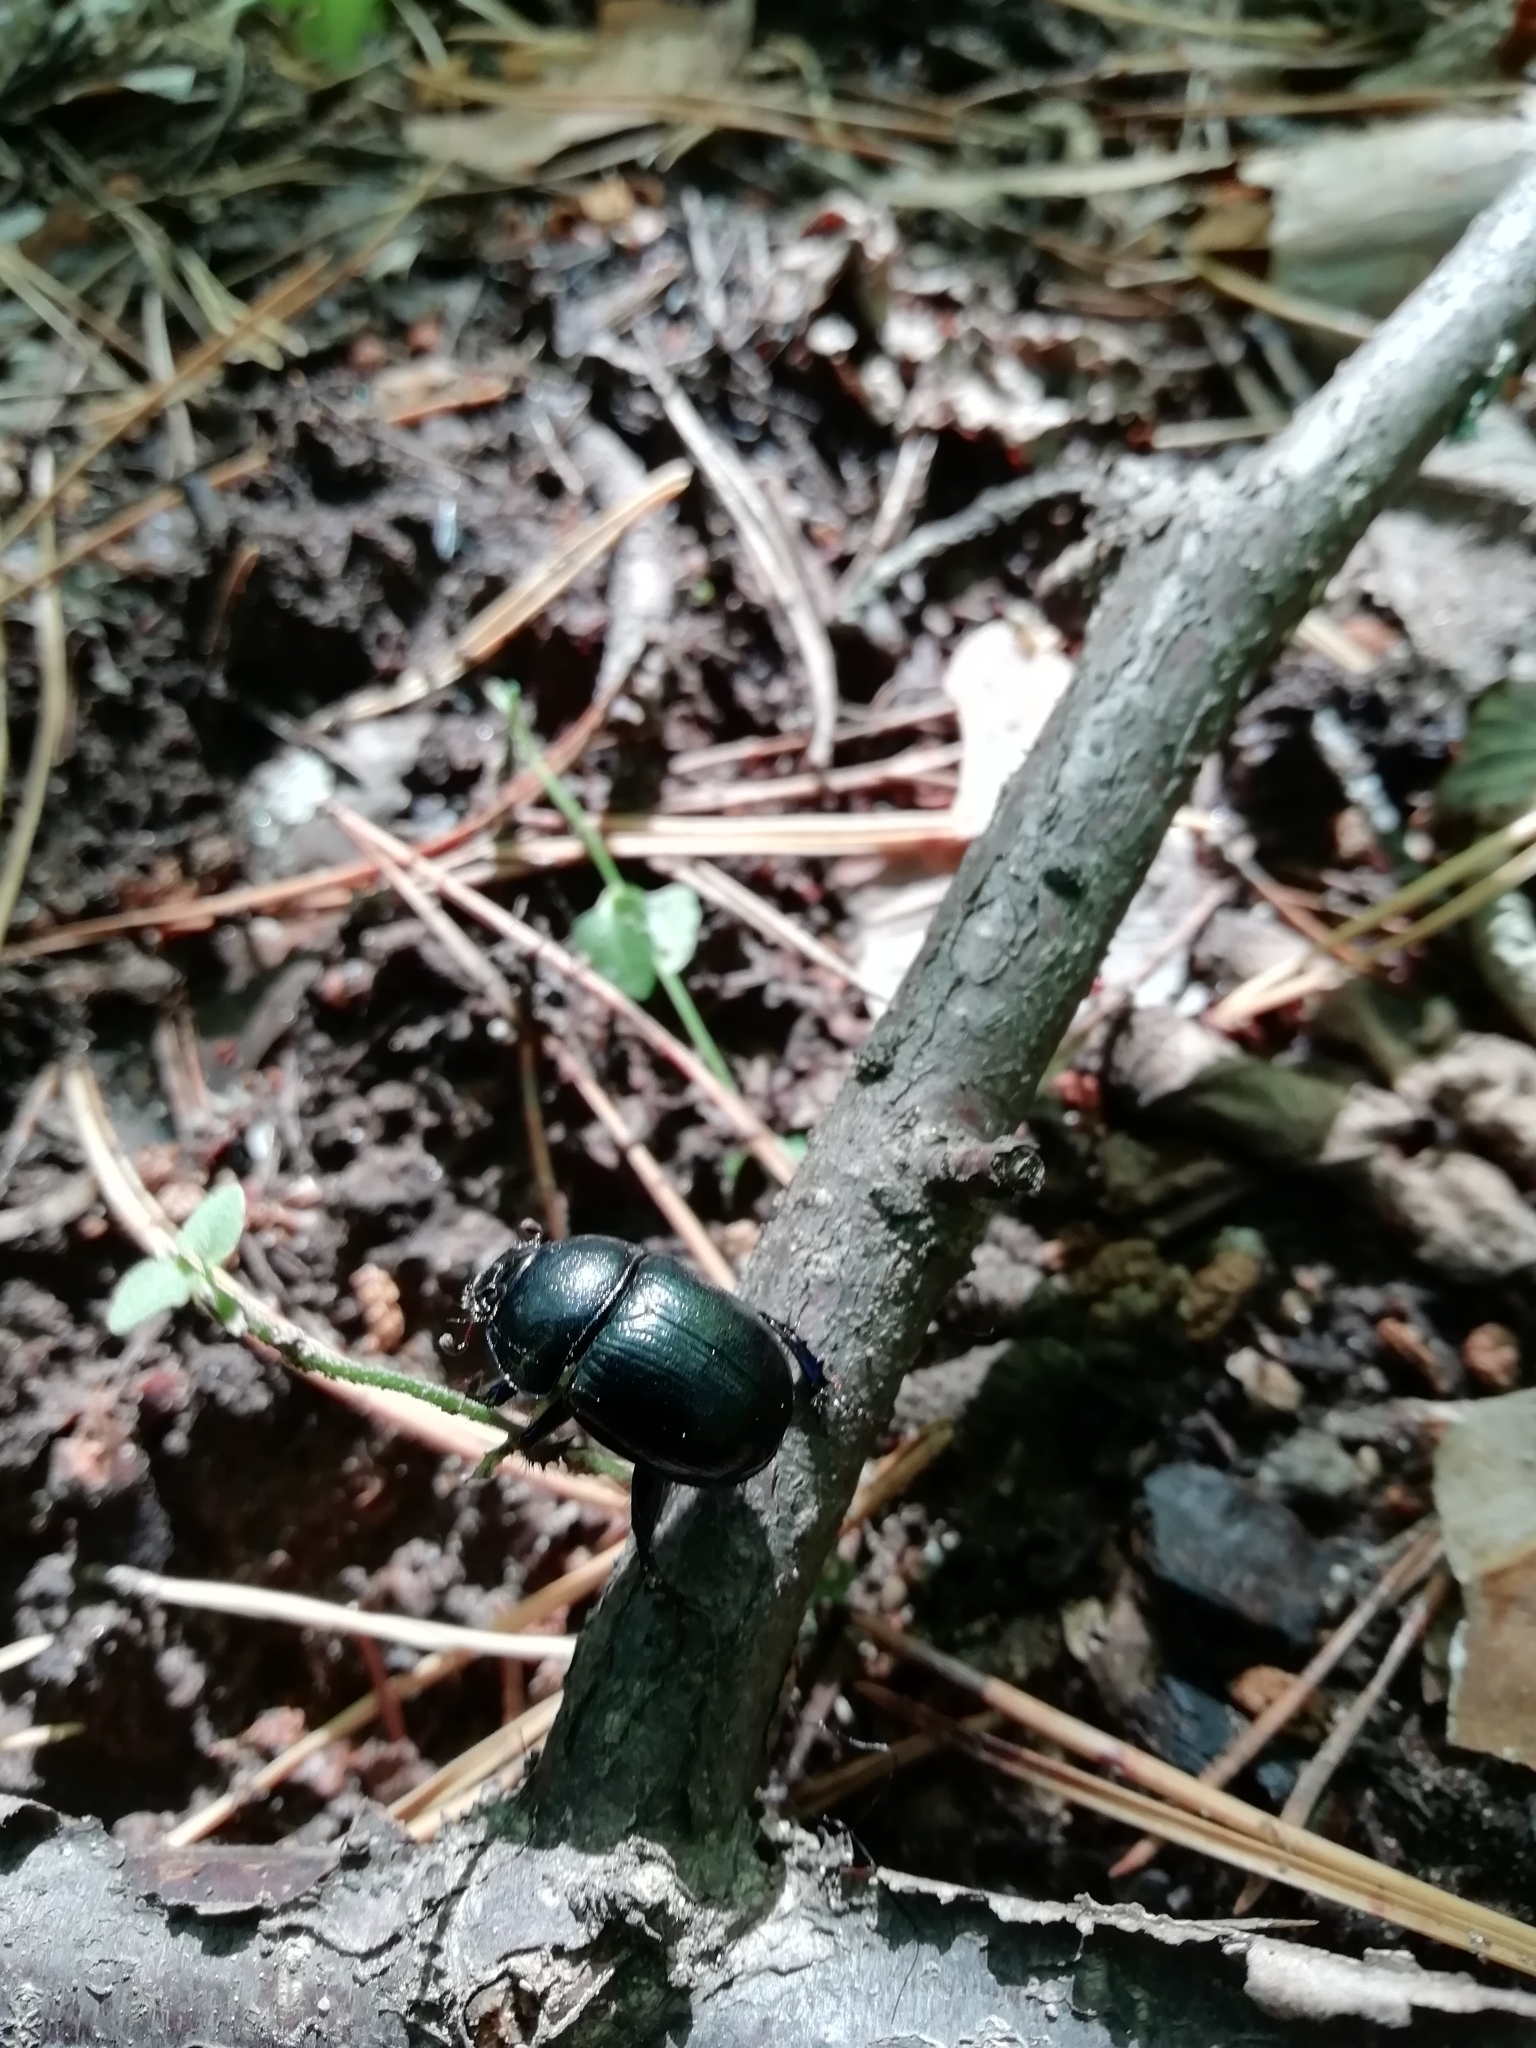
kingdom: Animalia
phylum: Arthropoda
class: Insecta
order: Coleoptera
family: Geotrupidae
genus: Anoplotrupes
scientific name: Anoplotrupes stercorosus
